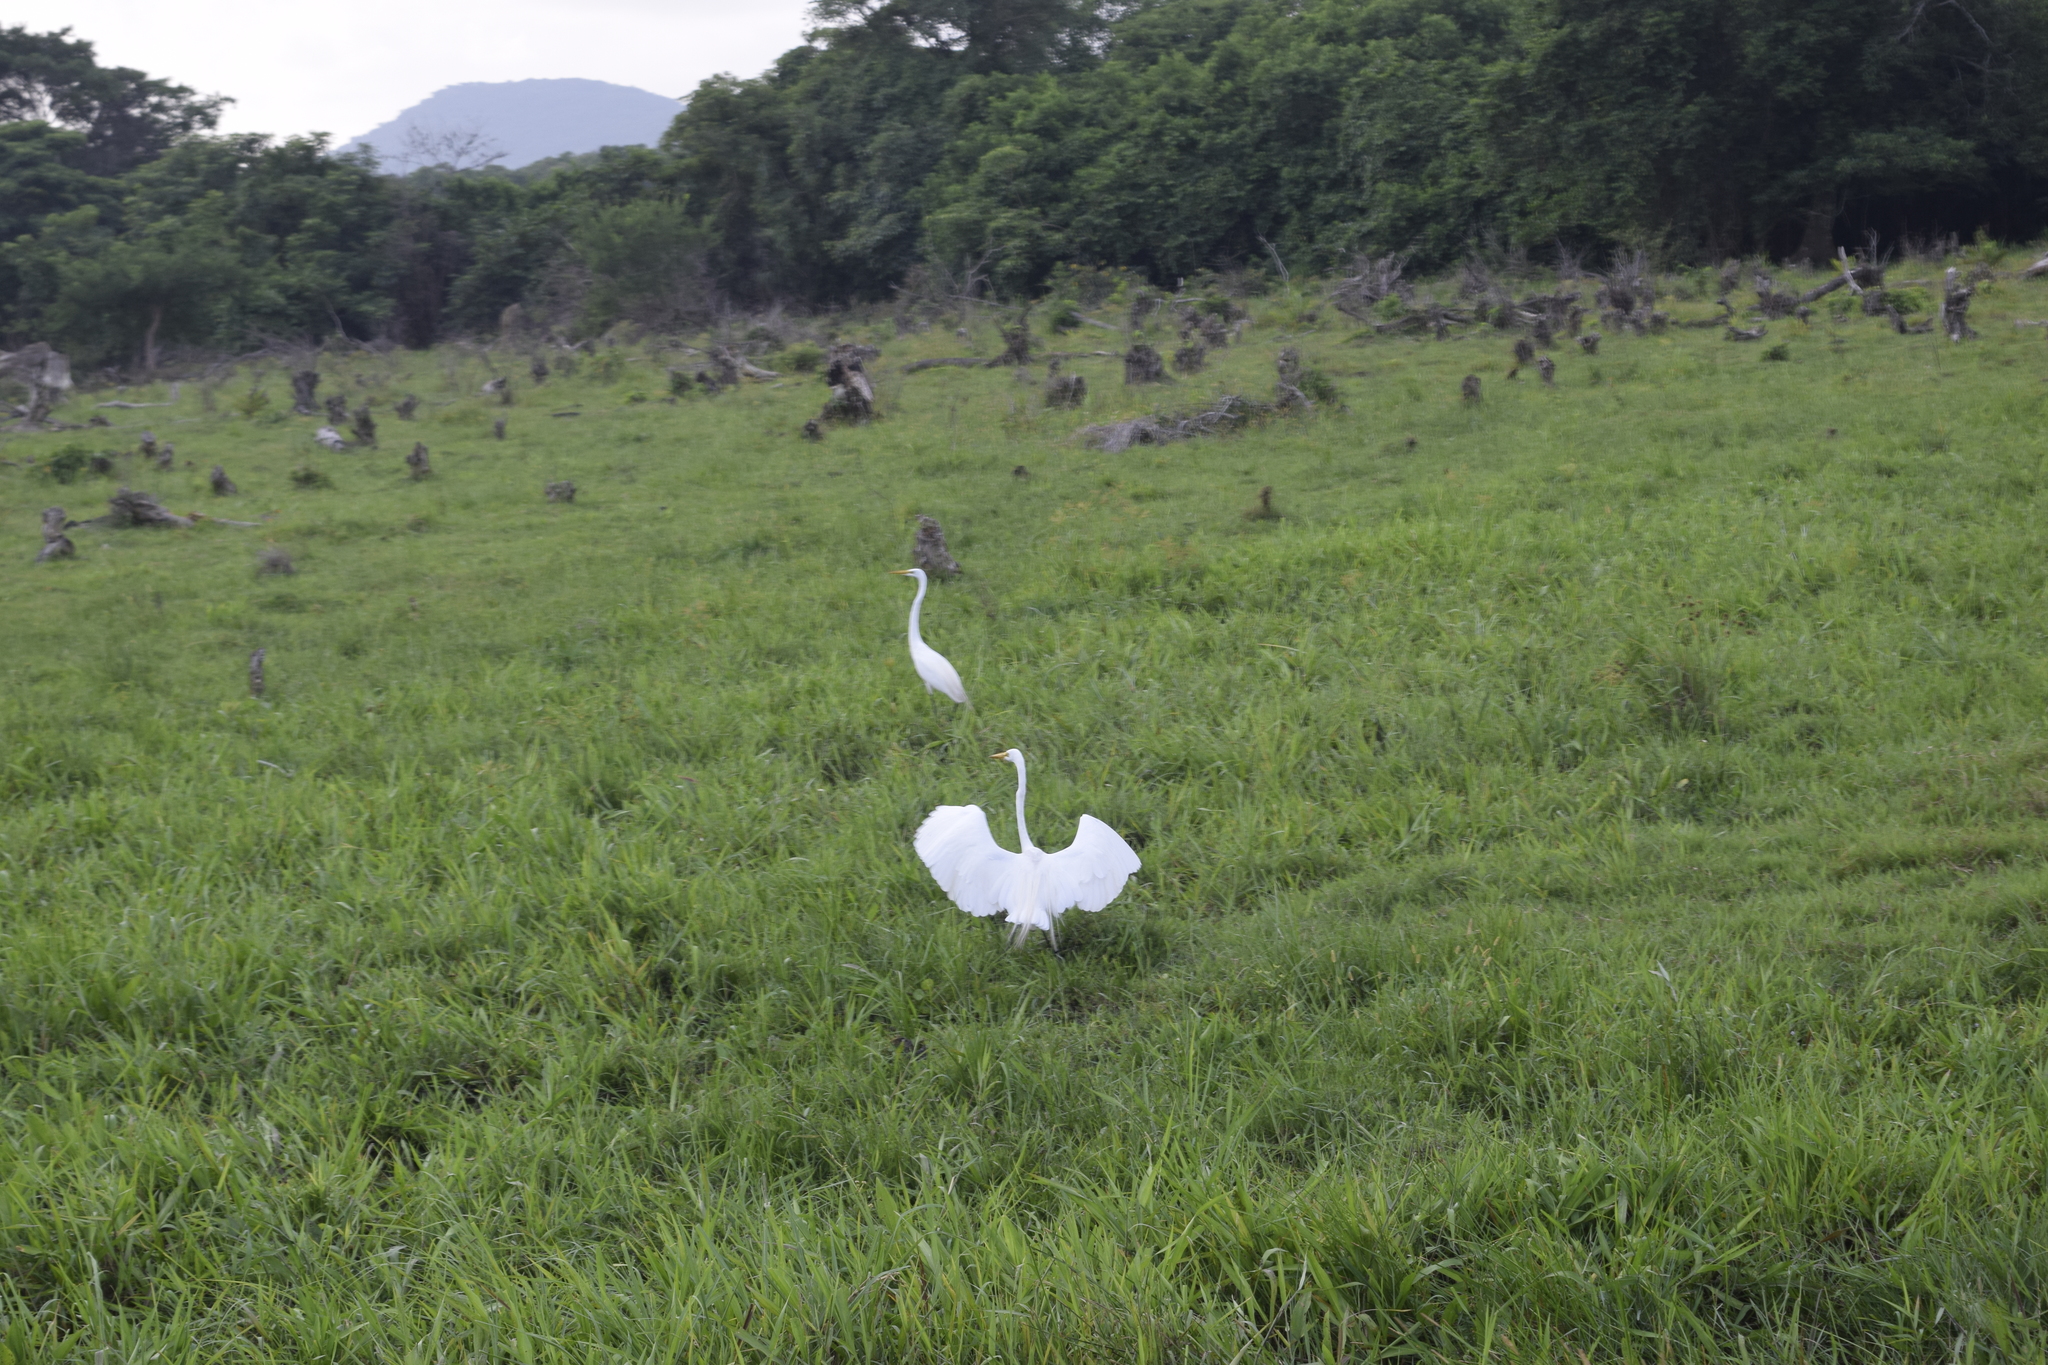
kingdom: Animalia
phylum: Chordata
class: Aves
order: Pelecaniformes
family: Ardeidae
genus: Ardea
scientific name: Ardea alba
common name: Great egret
